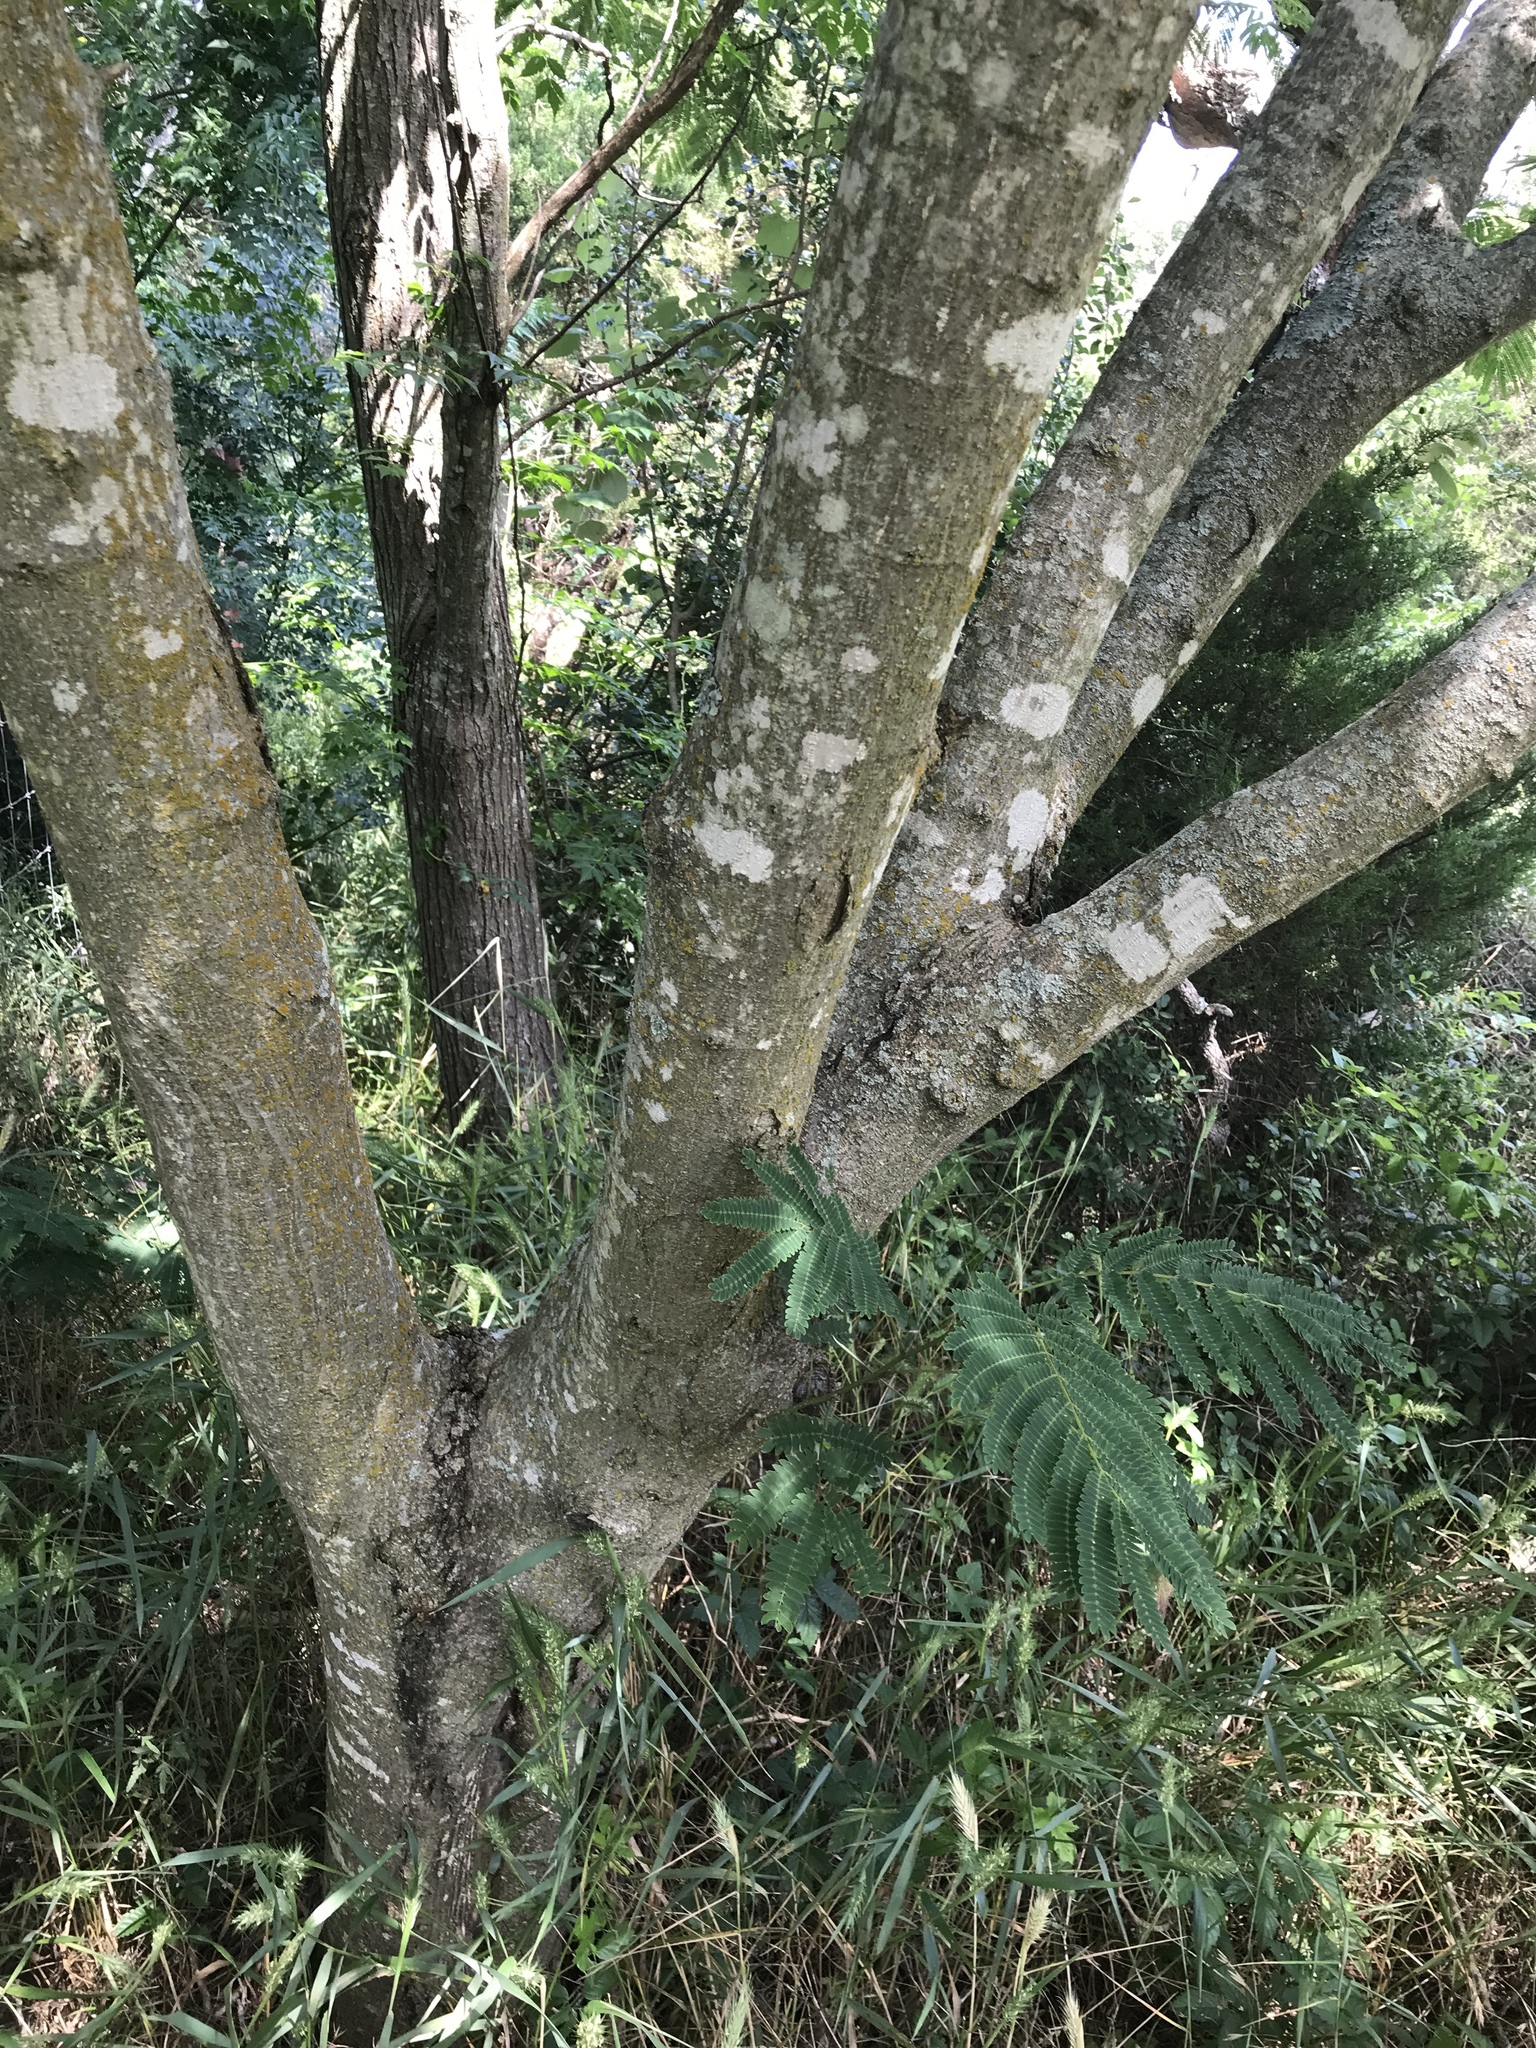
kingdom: Plantae
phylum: Tracheophyta
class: Magnoliopsida
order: Fabales
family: Fabaceae
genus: Albizia
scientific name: Albizia julibrissin
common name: Silktree
